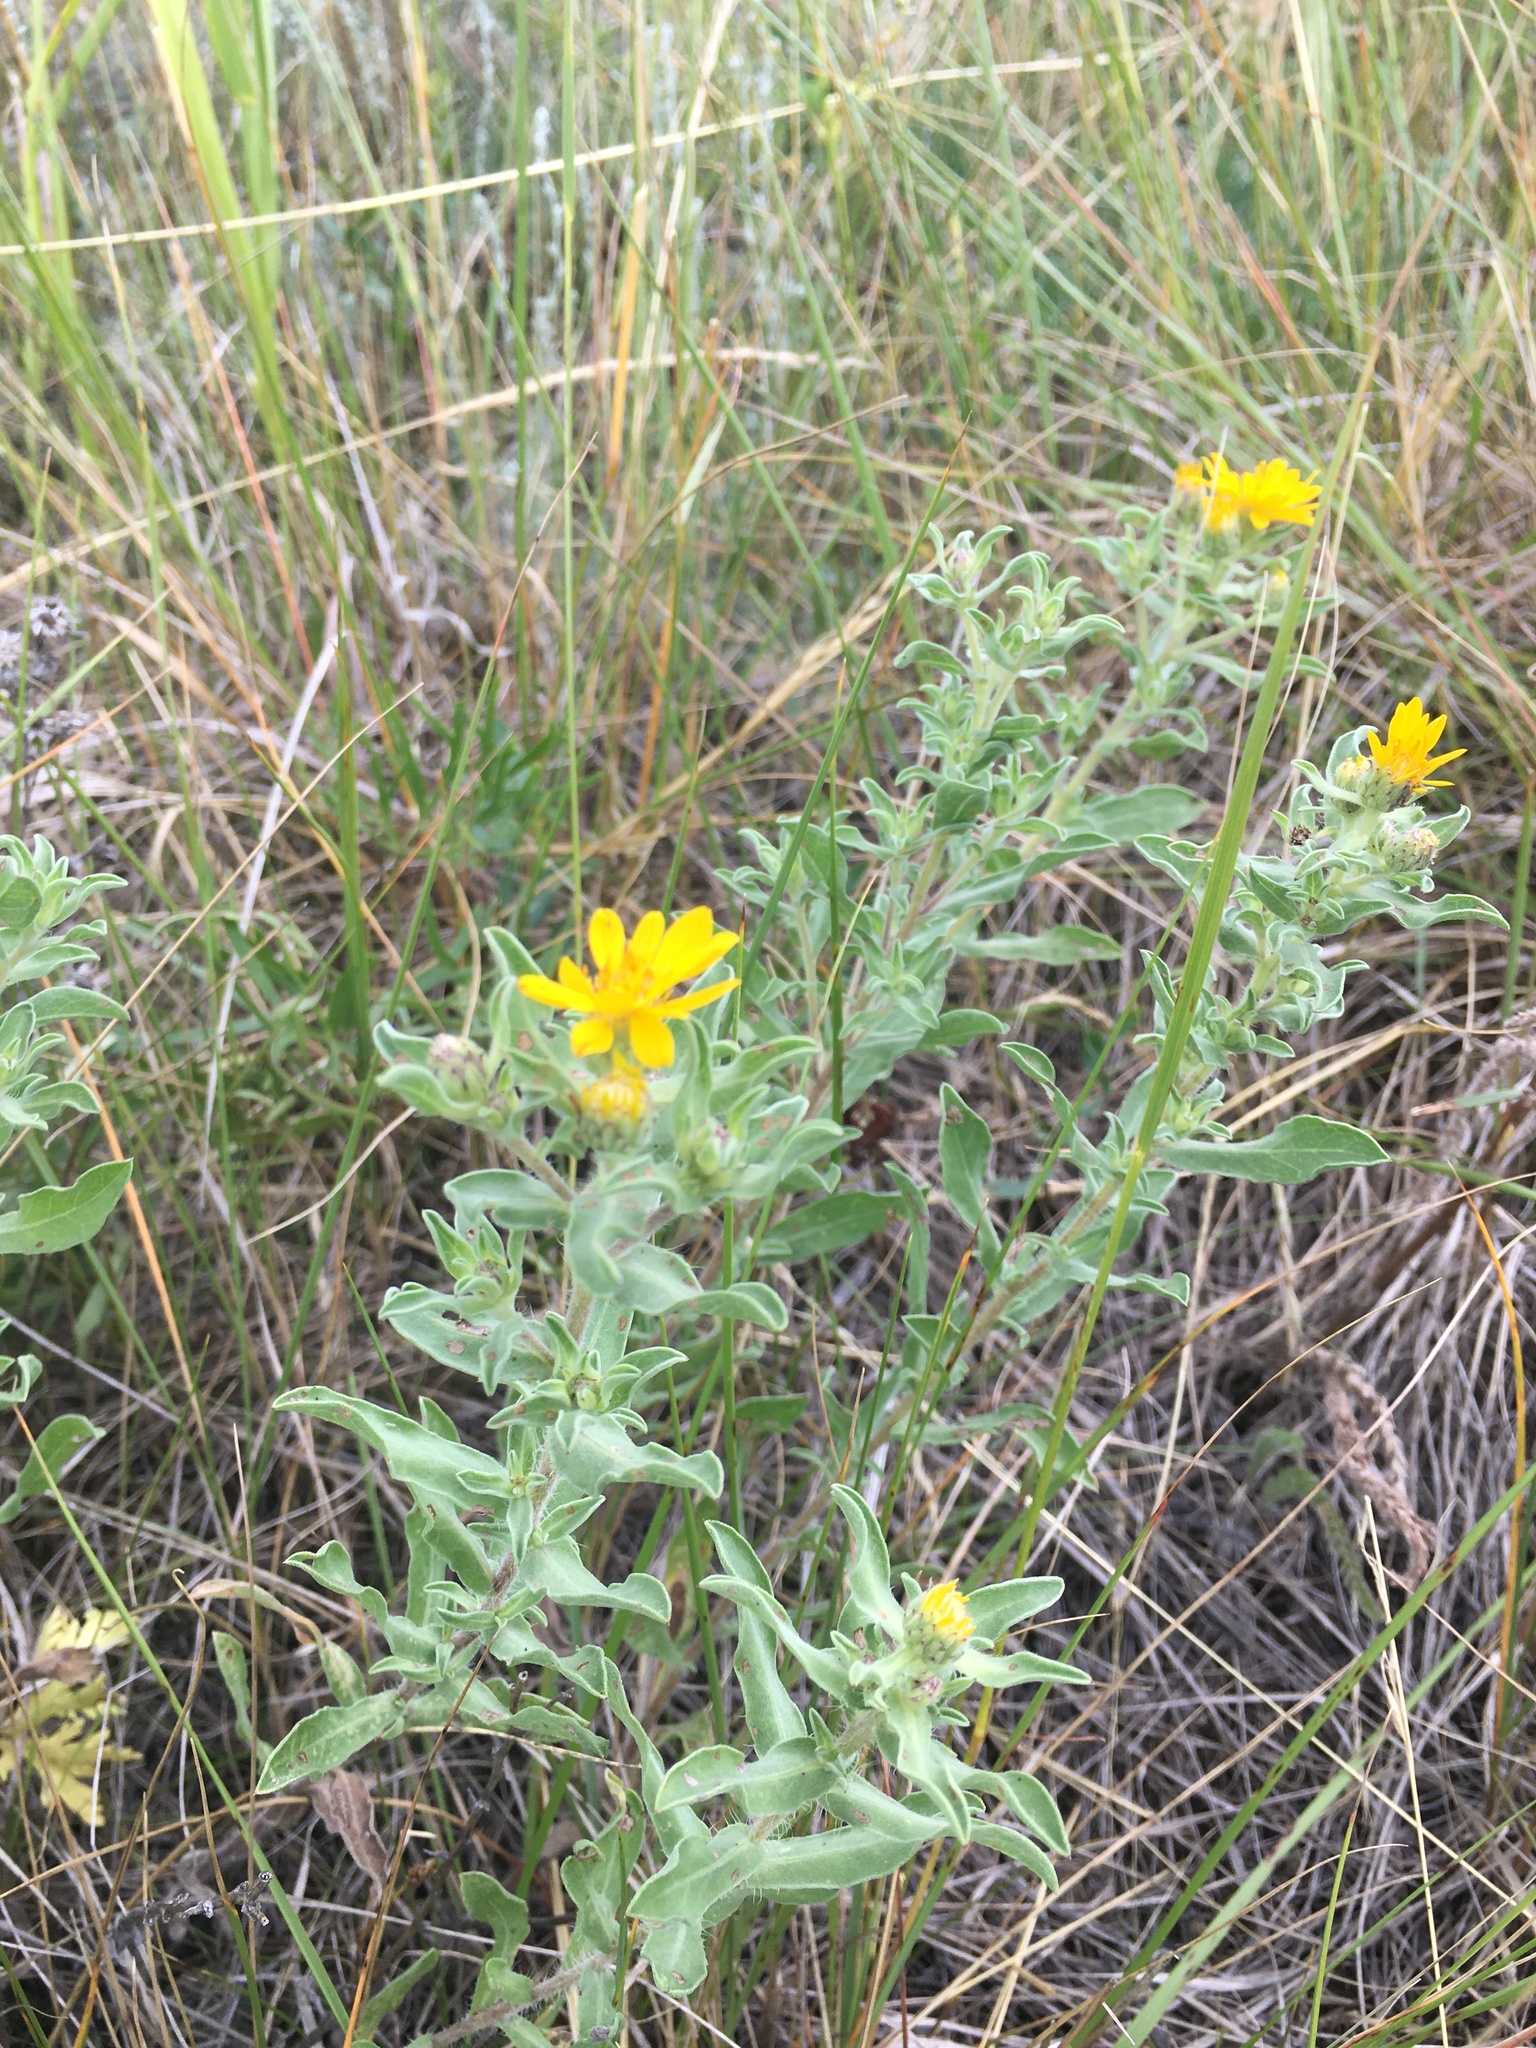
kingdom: Plantae
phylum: Tracheophyta
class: Magnoliopsida
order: Asterales
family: Asteraceae
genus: Heterotheca
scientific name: Heterotheca villosa
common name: Hairy false goldenaster
